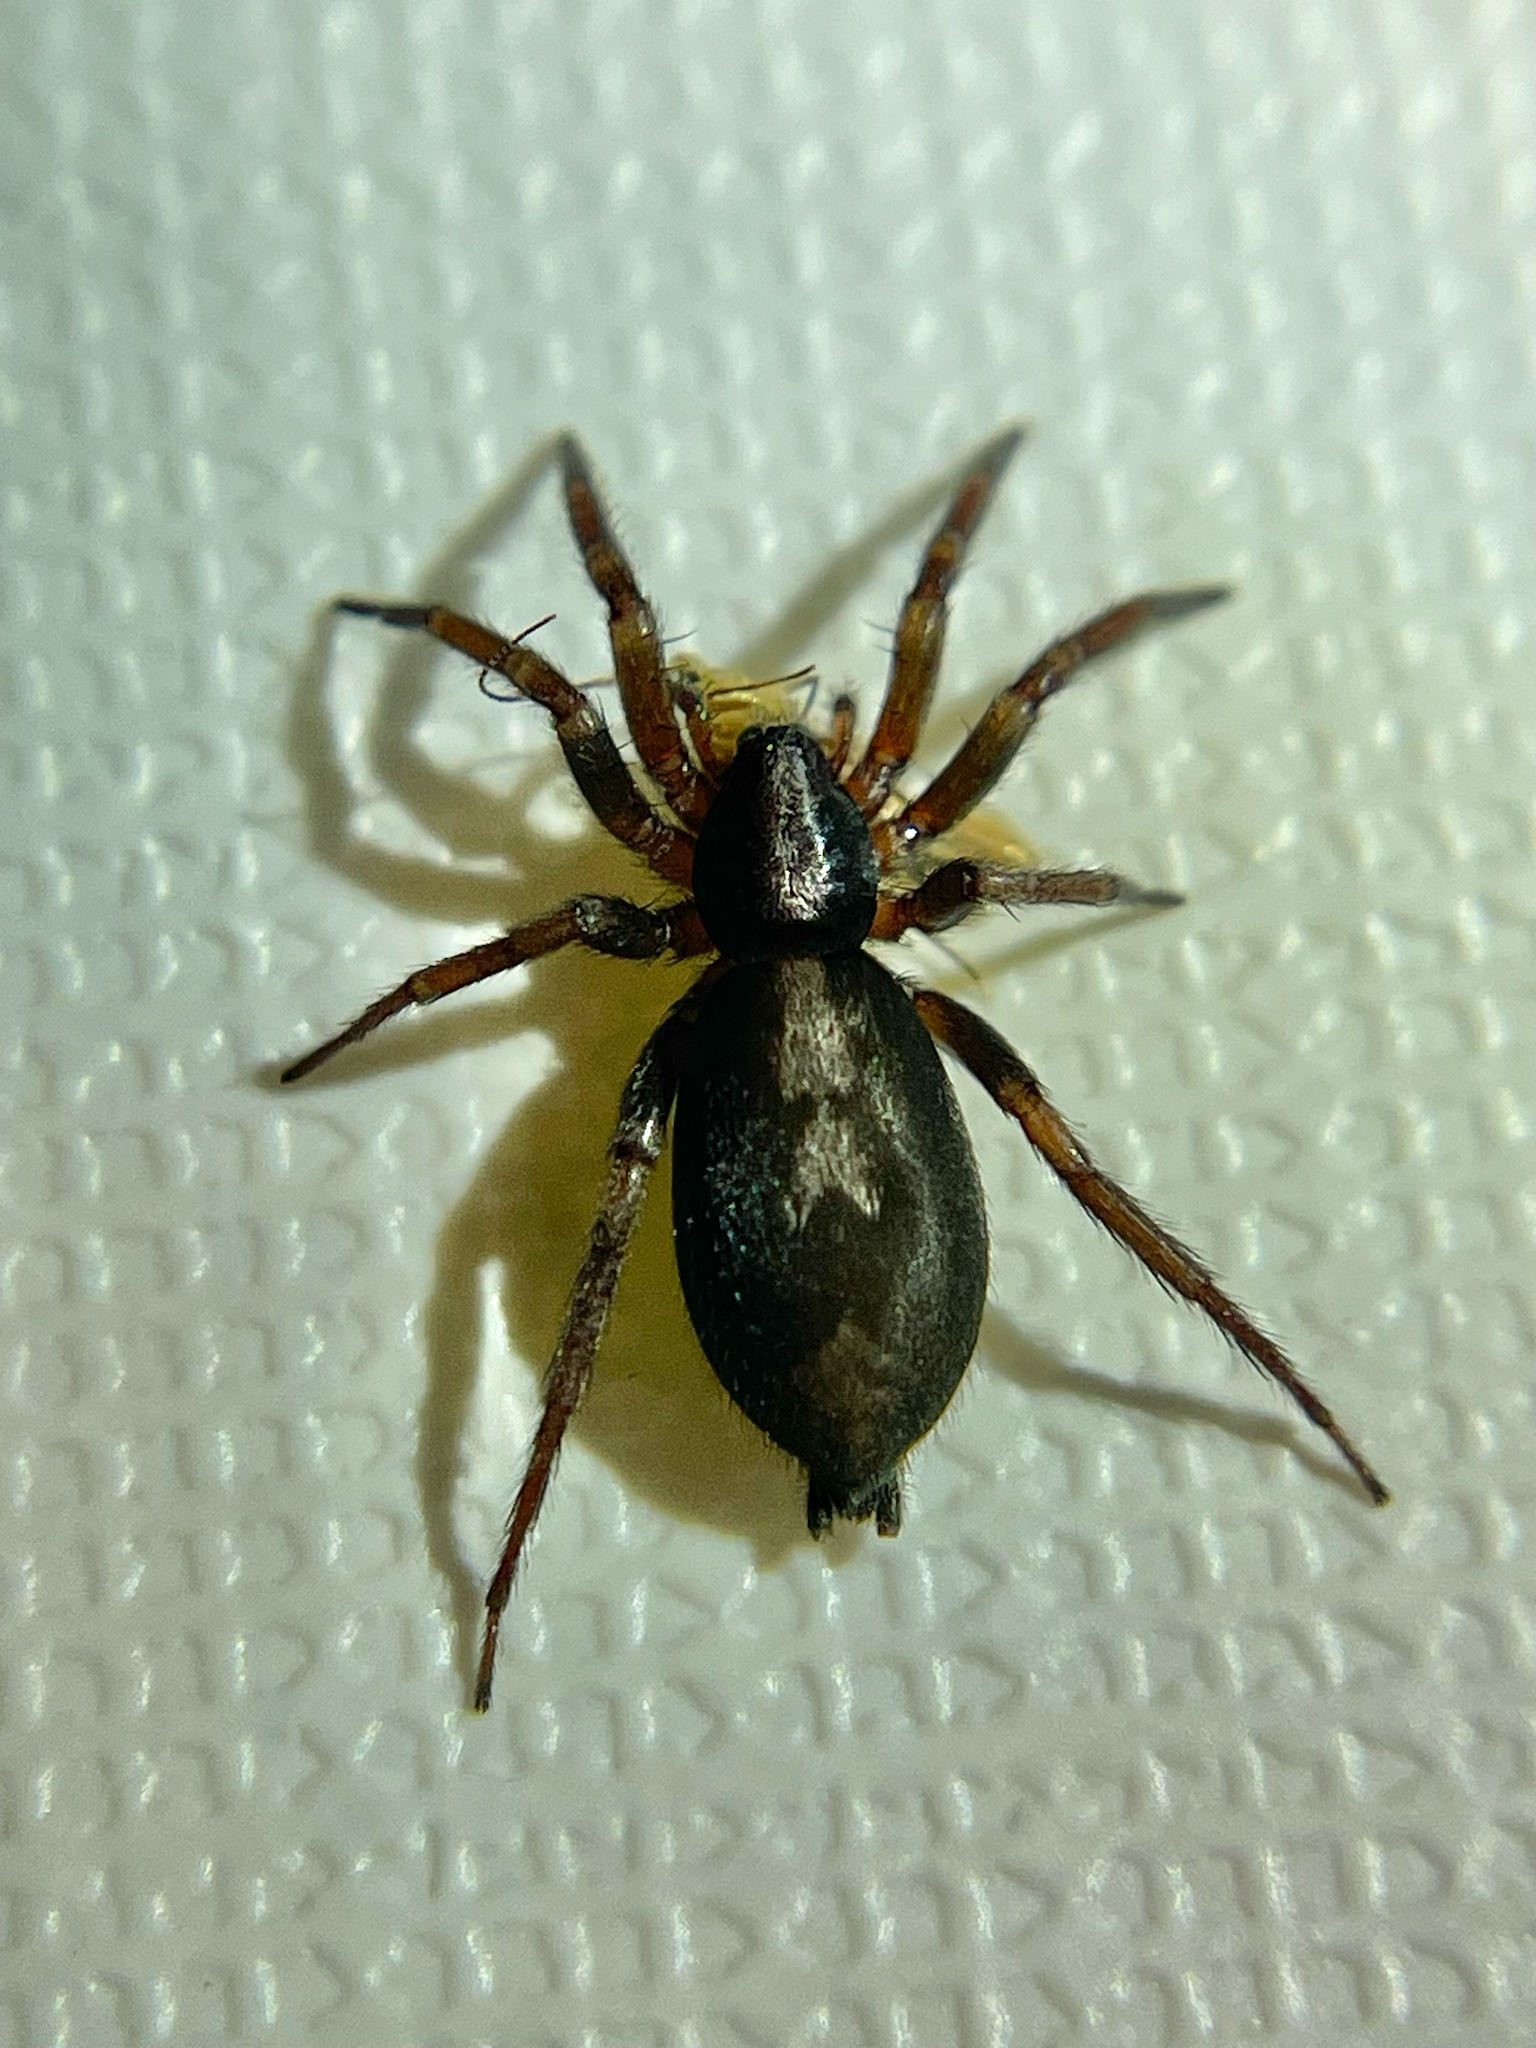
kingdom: Animalia
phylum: Arthropoda
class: Arachnida
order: Araneae
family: Gnaphosidae
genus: Herpyllus
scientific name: Herpyllus ecclesiasticus
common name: Eastern parson spider
